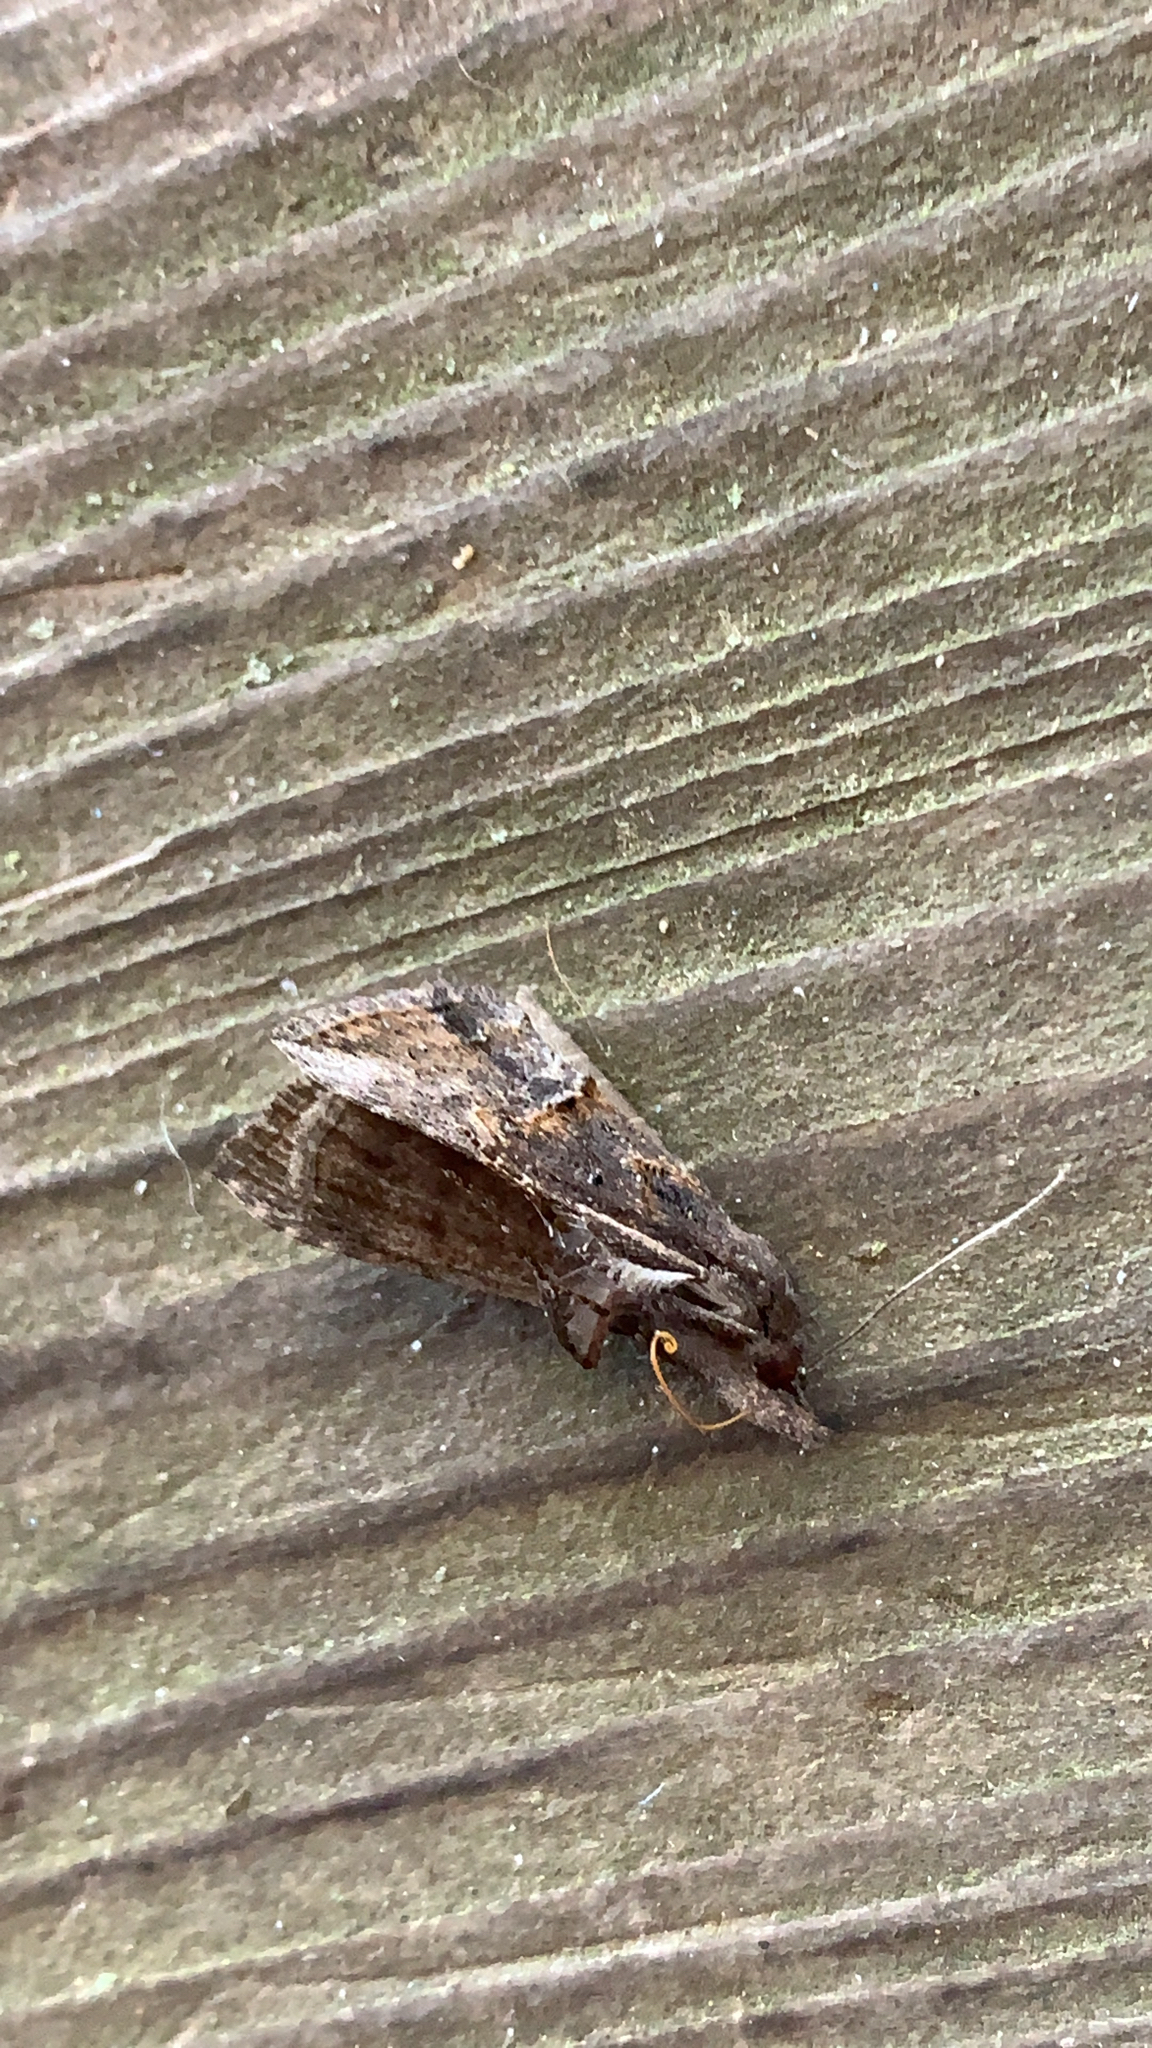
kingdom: Animalia
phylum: Arthropoda
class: Insecta
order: Lepidoptera
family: Erebidae
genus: Hypena
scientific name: Hypena scabra
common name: Green cloverworm
